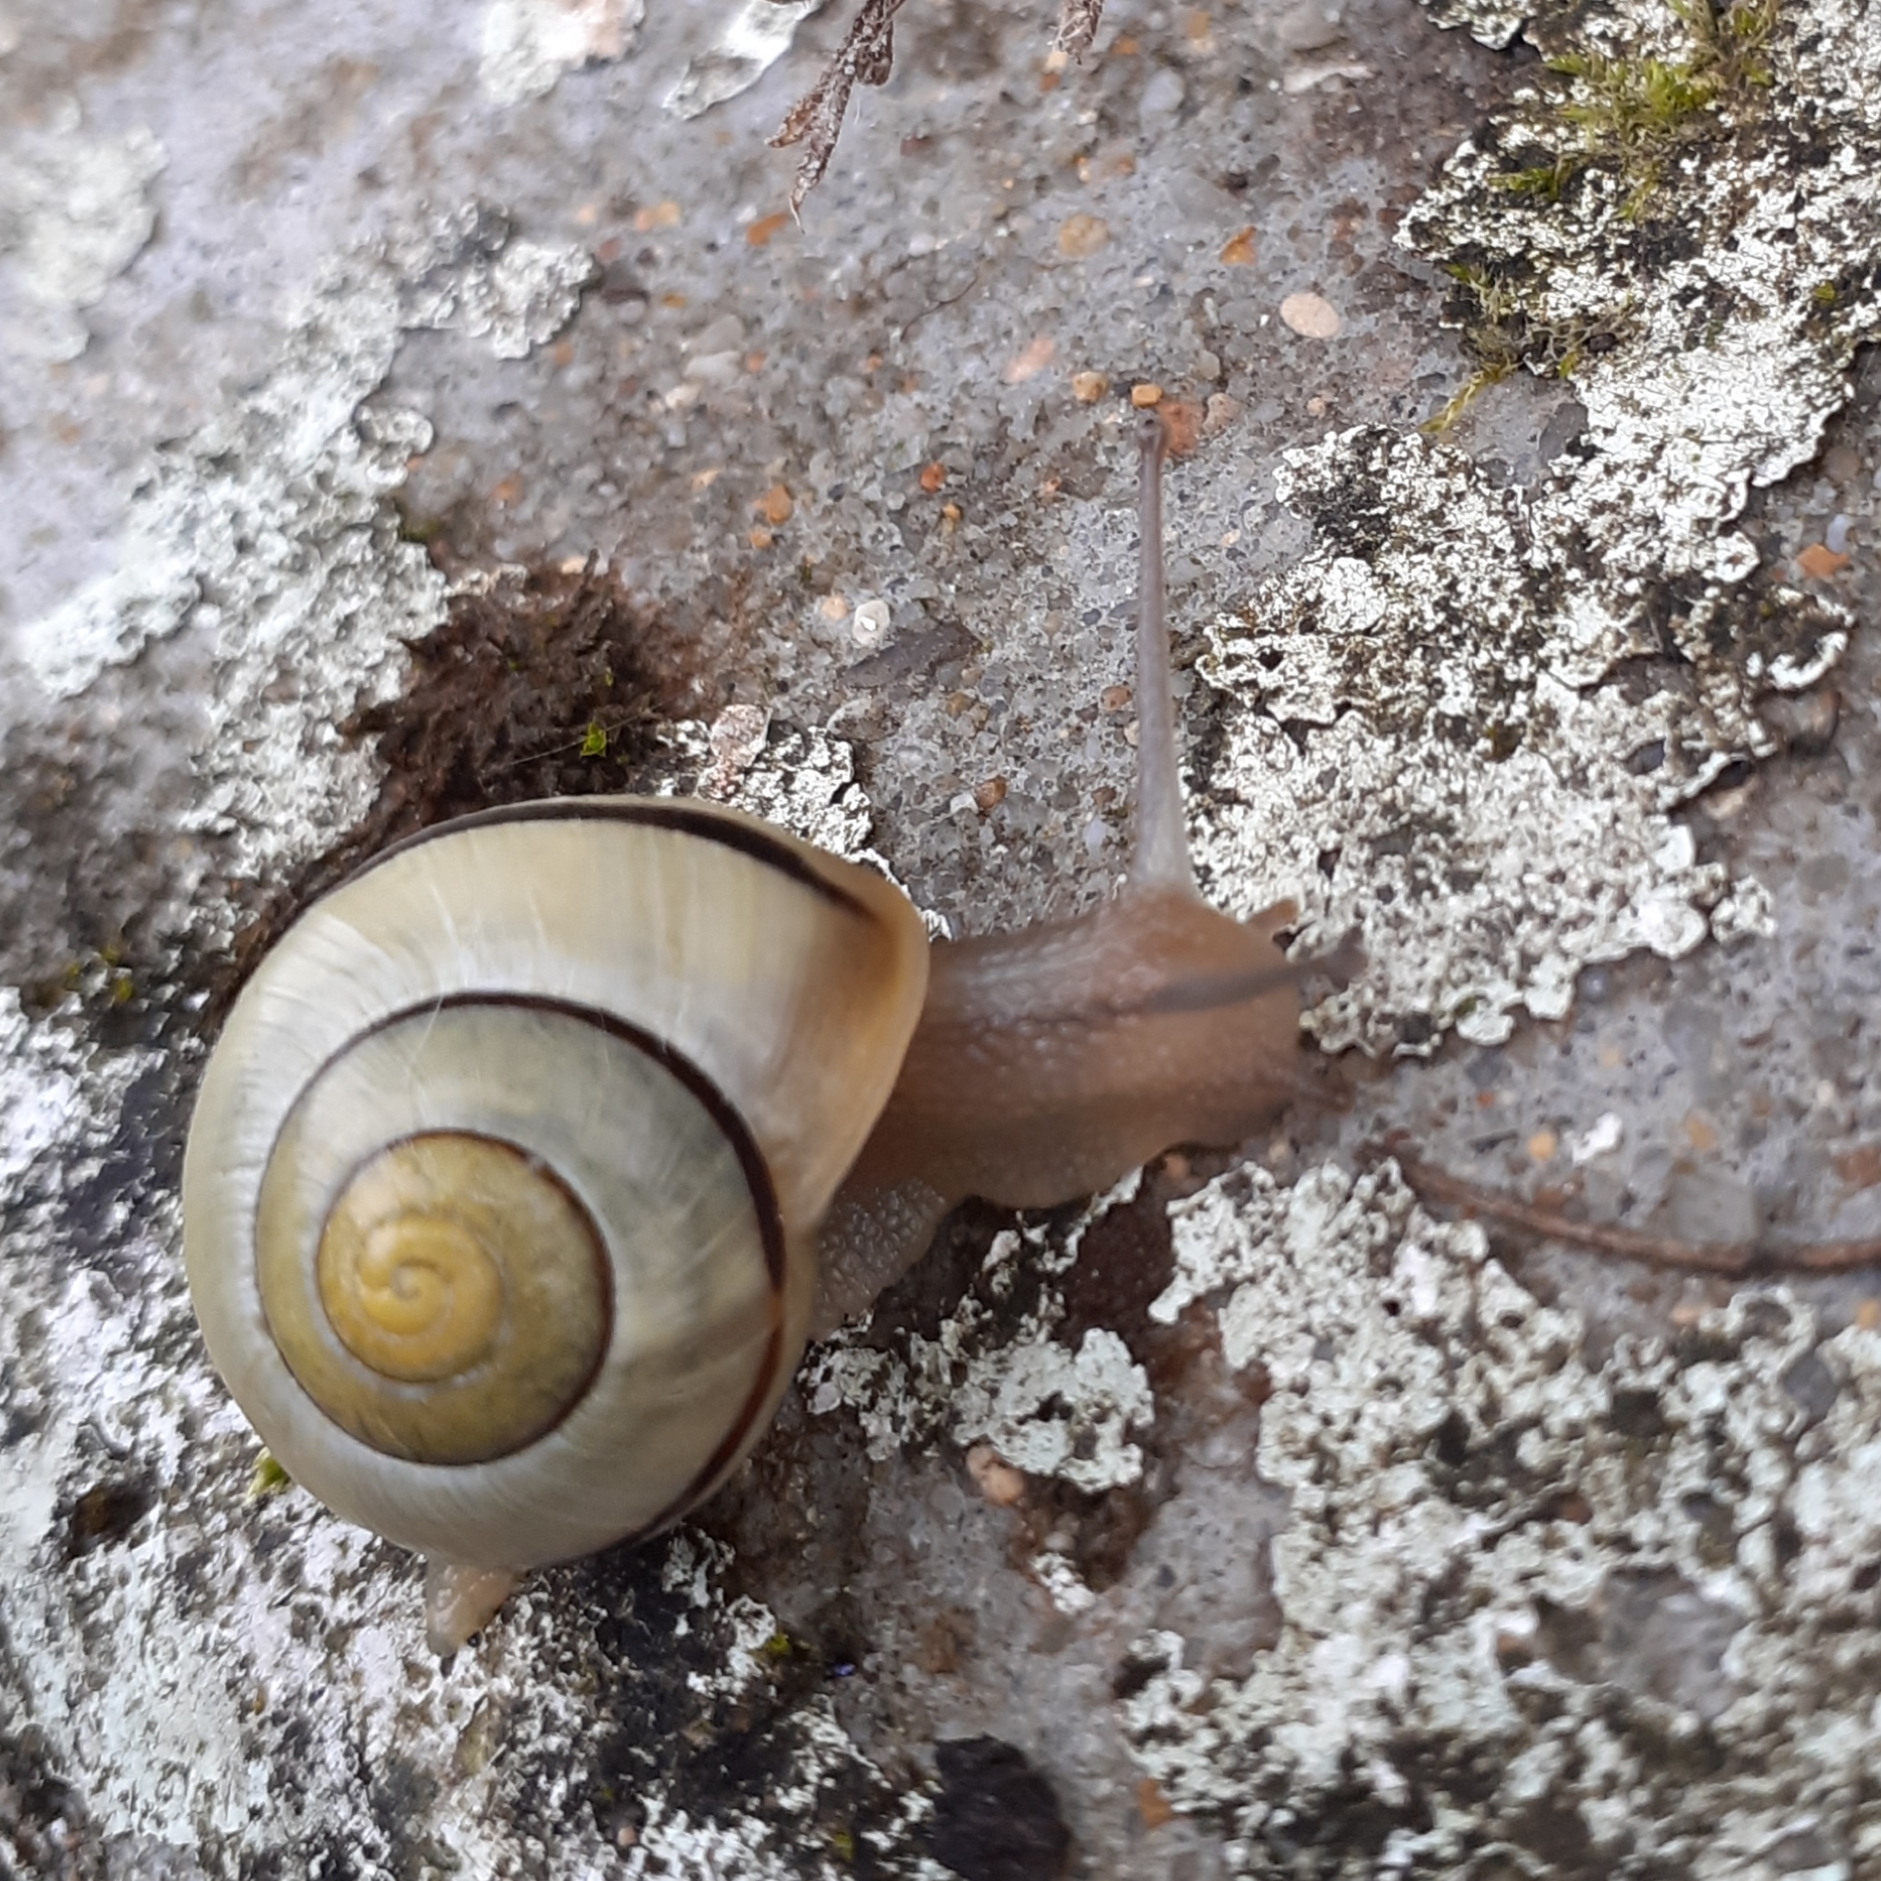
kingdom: Animalia
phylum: Mollusca
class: Gastropoda
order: Stylommatophora
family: Helicidae
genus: Cepaea
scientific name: Cepaea
